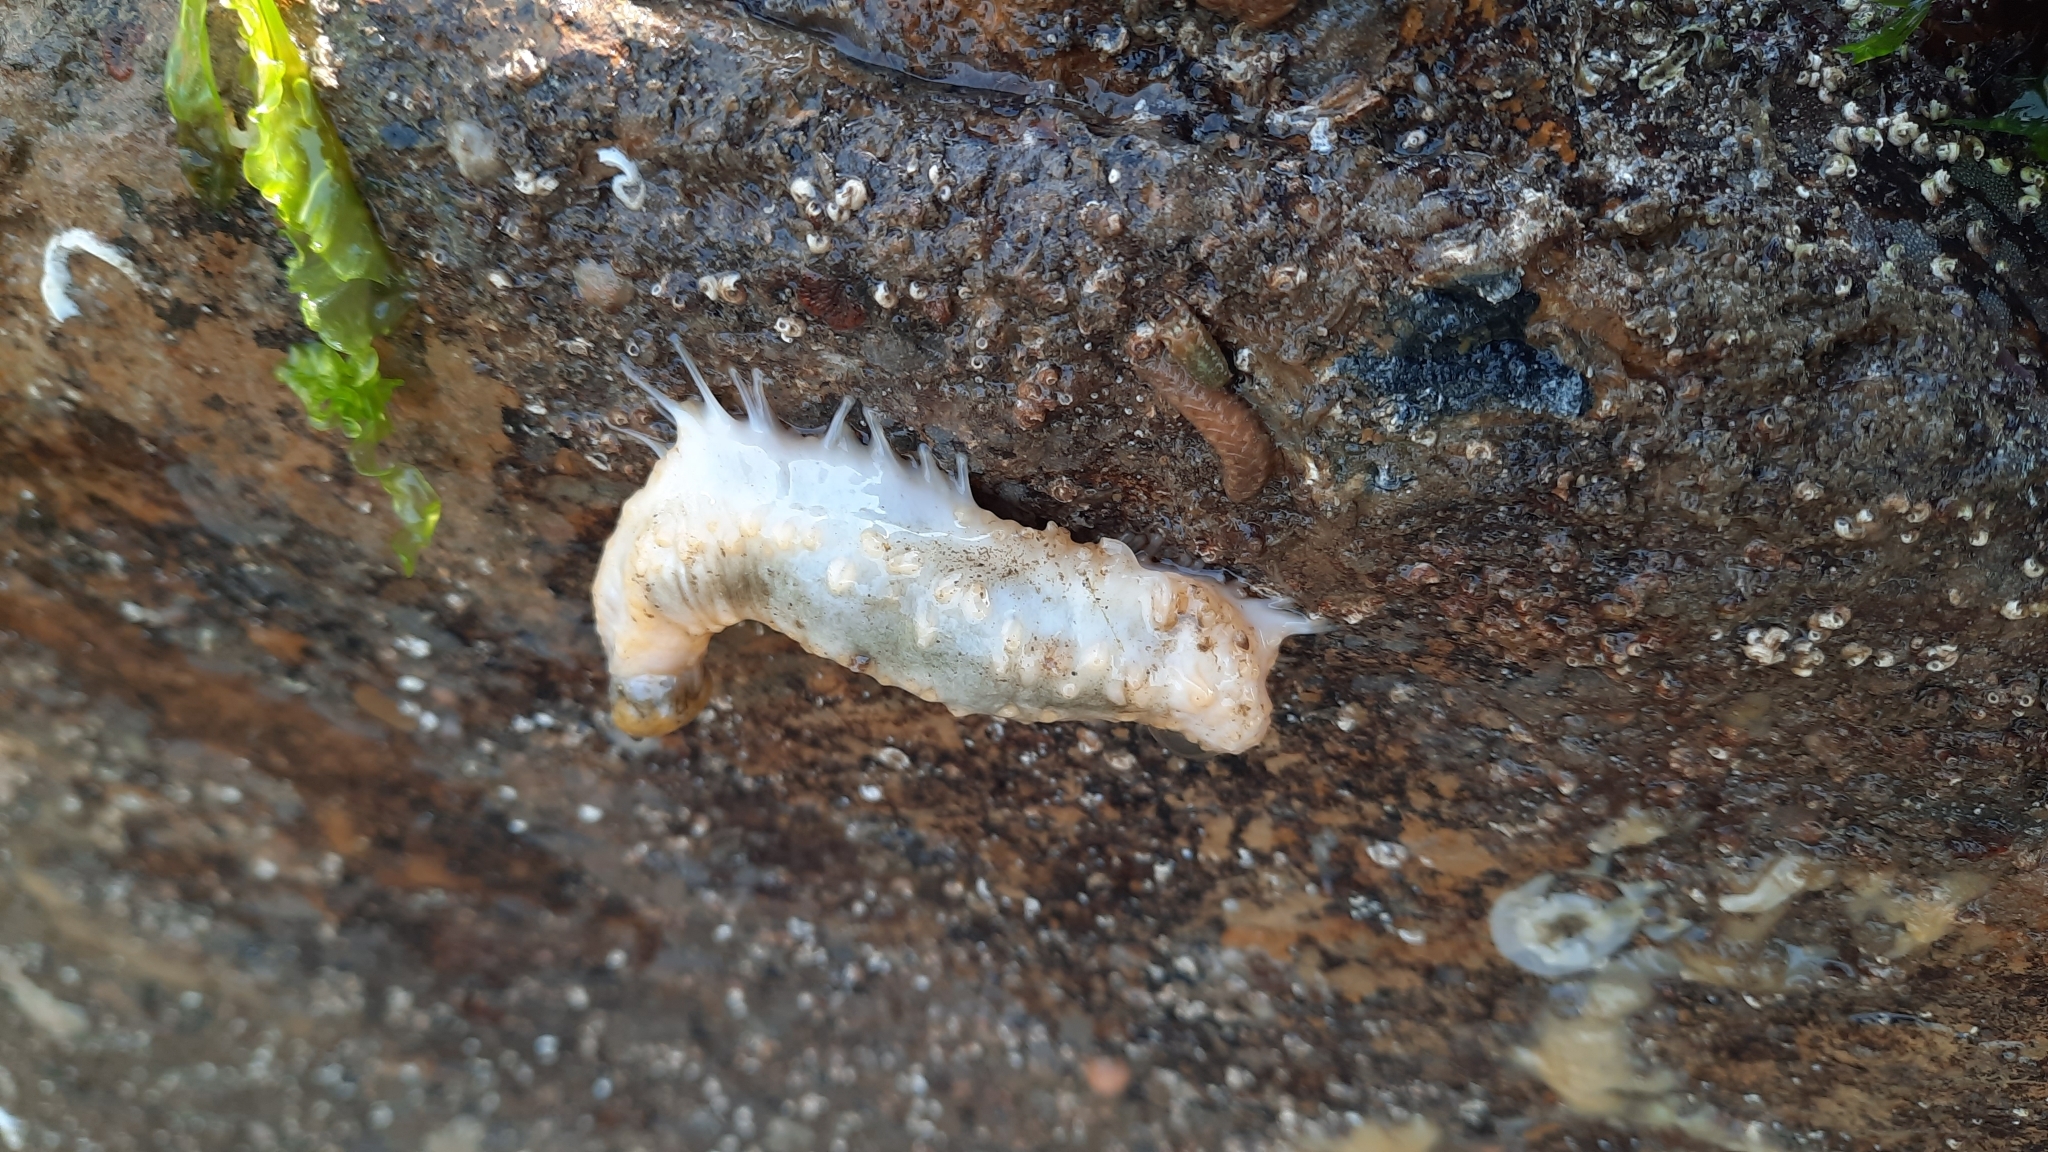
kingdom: Animalia
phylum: Echinodermata
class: Holothuroidea
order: Dendrochirotida
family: Cucumariidae
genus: Pawsonia
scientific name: Pawsonia saxicola
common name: Sea gherkin
